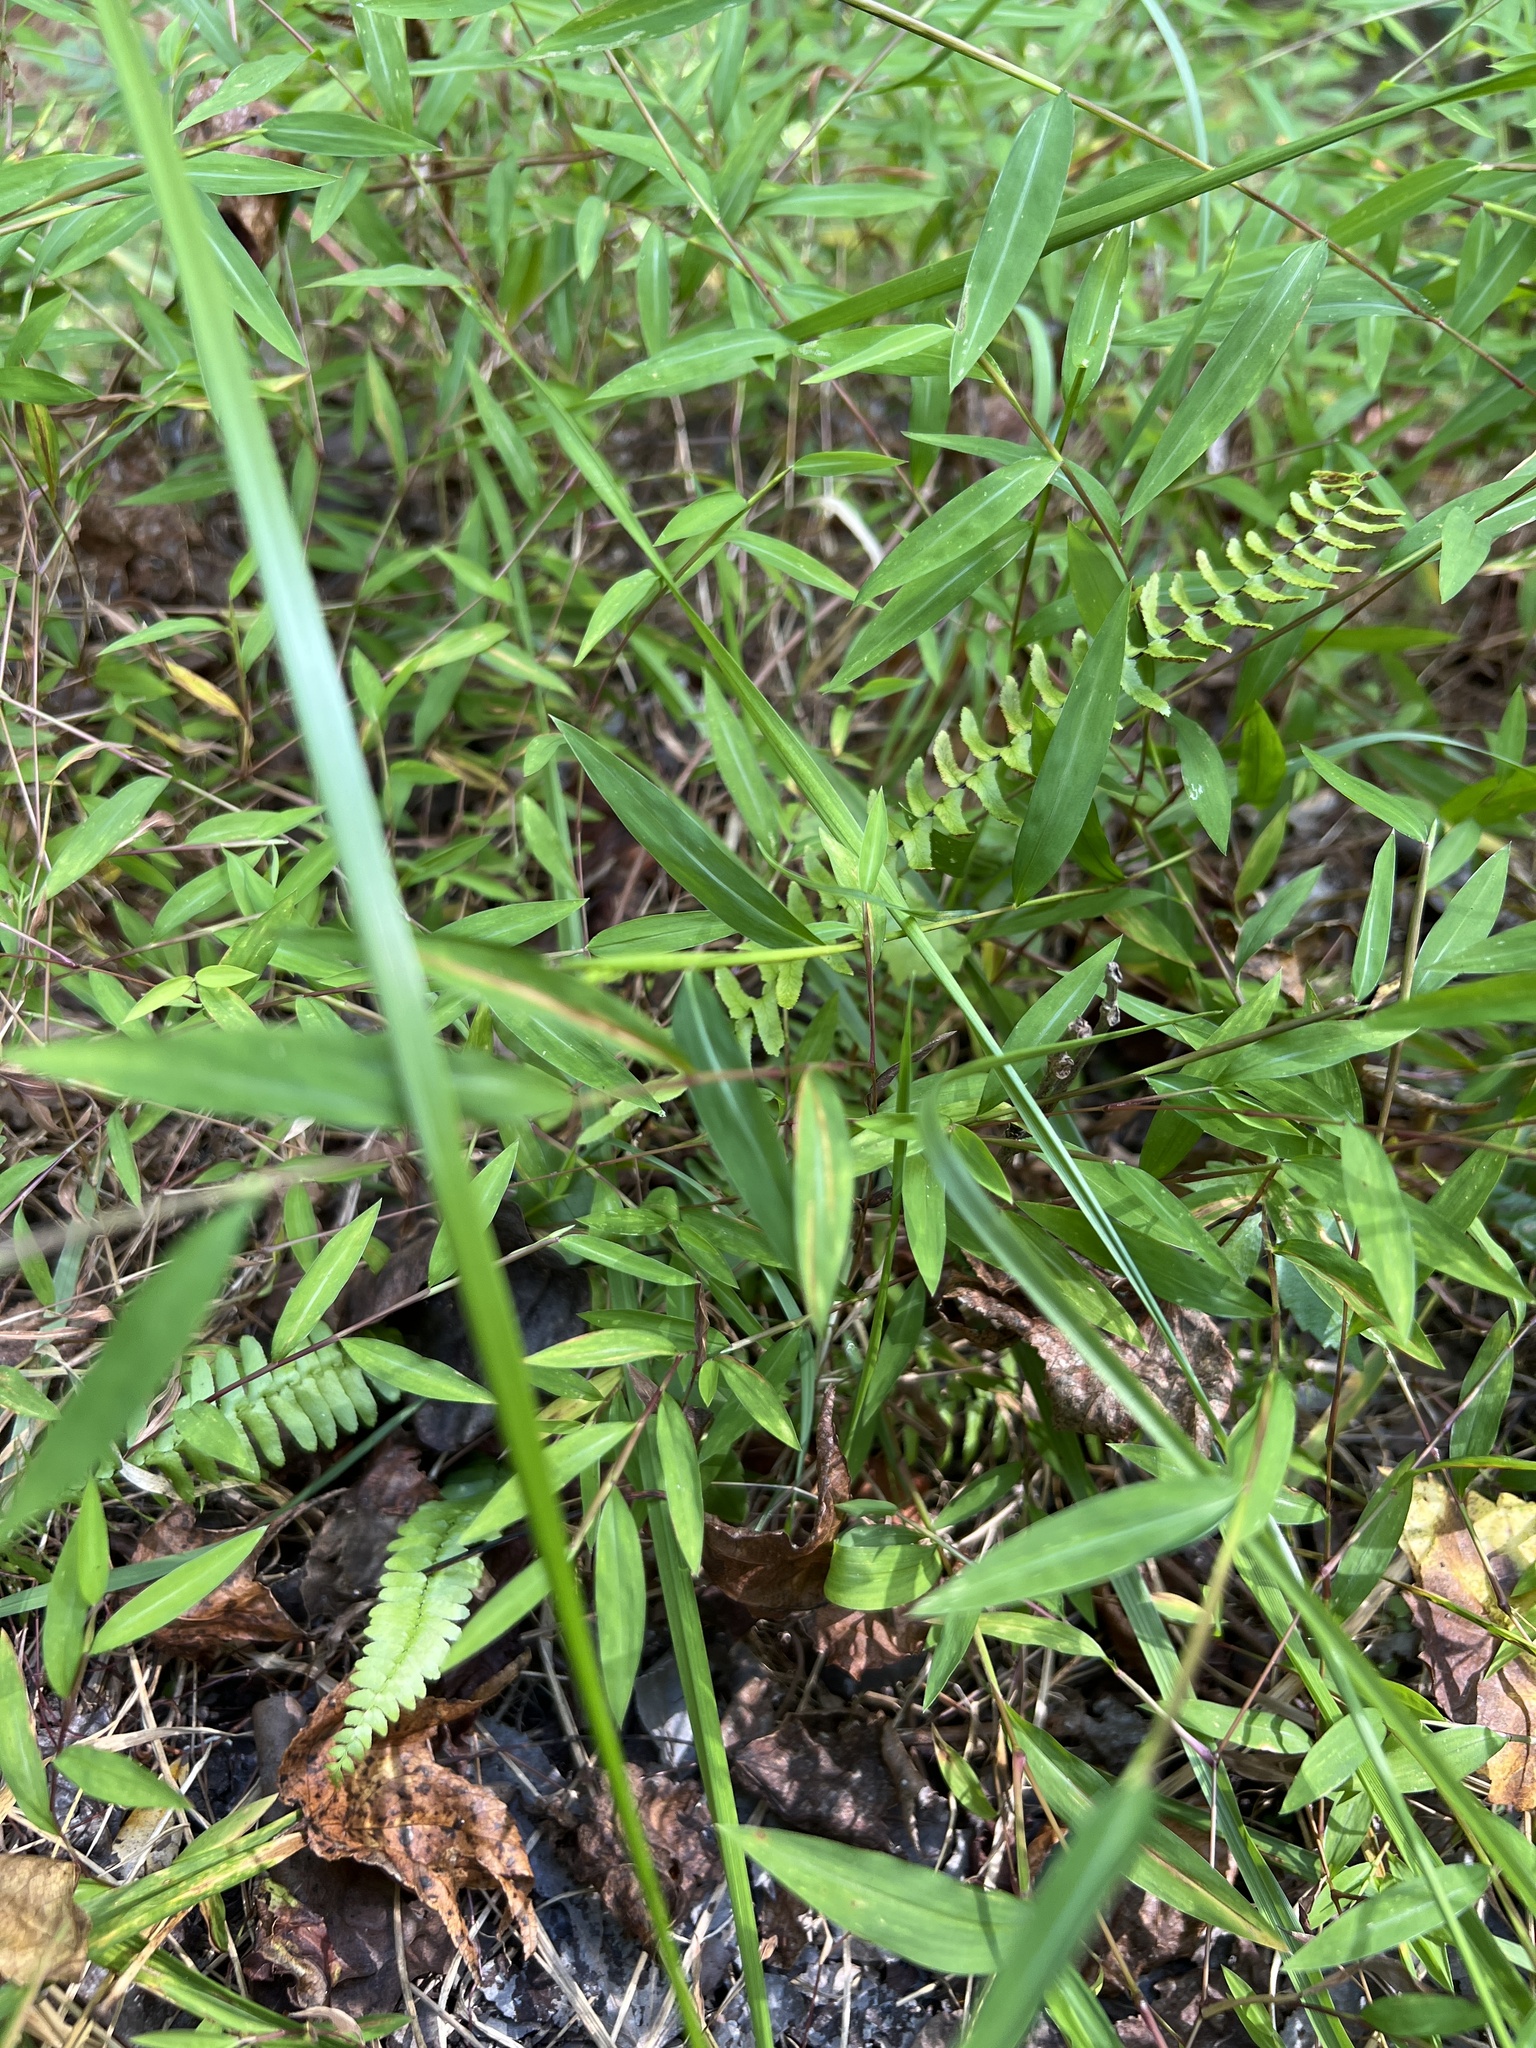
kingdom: Plantae
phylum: Tracheophyta
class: Polypodiopsida
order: Polypodiales
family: Aspleniaceae
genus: Asplenium
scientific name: Asplenium platyneuron
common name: Ebony spleenwort
